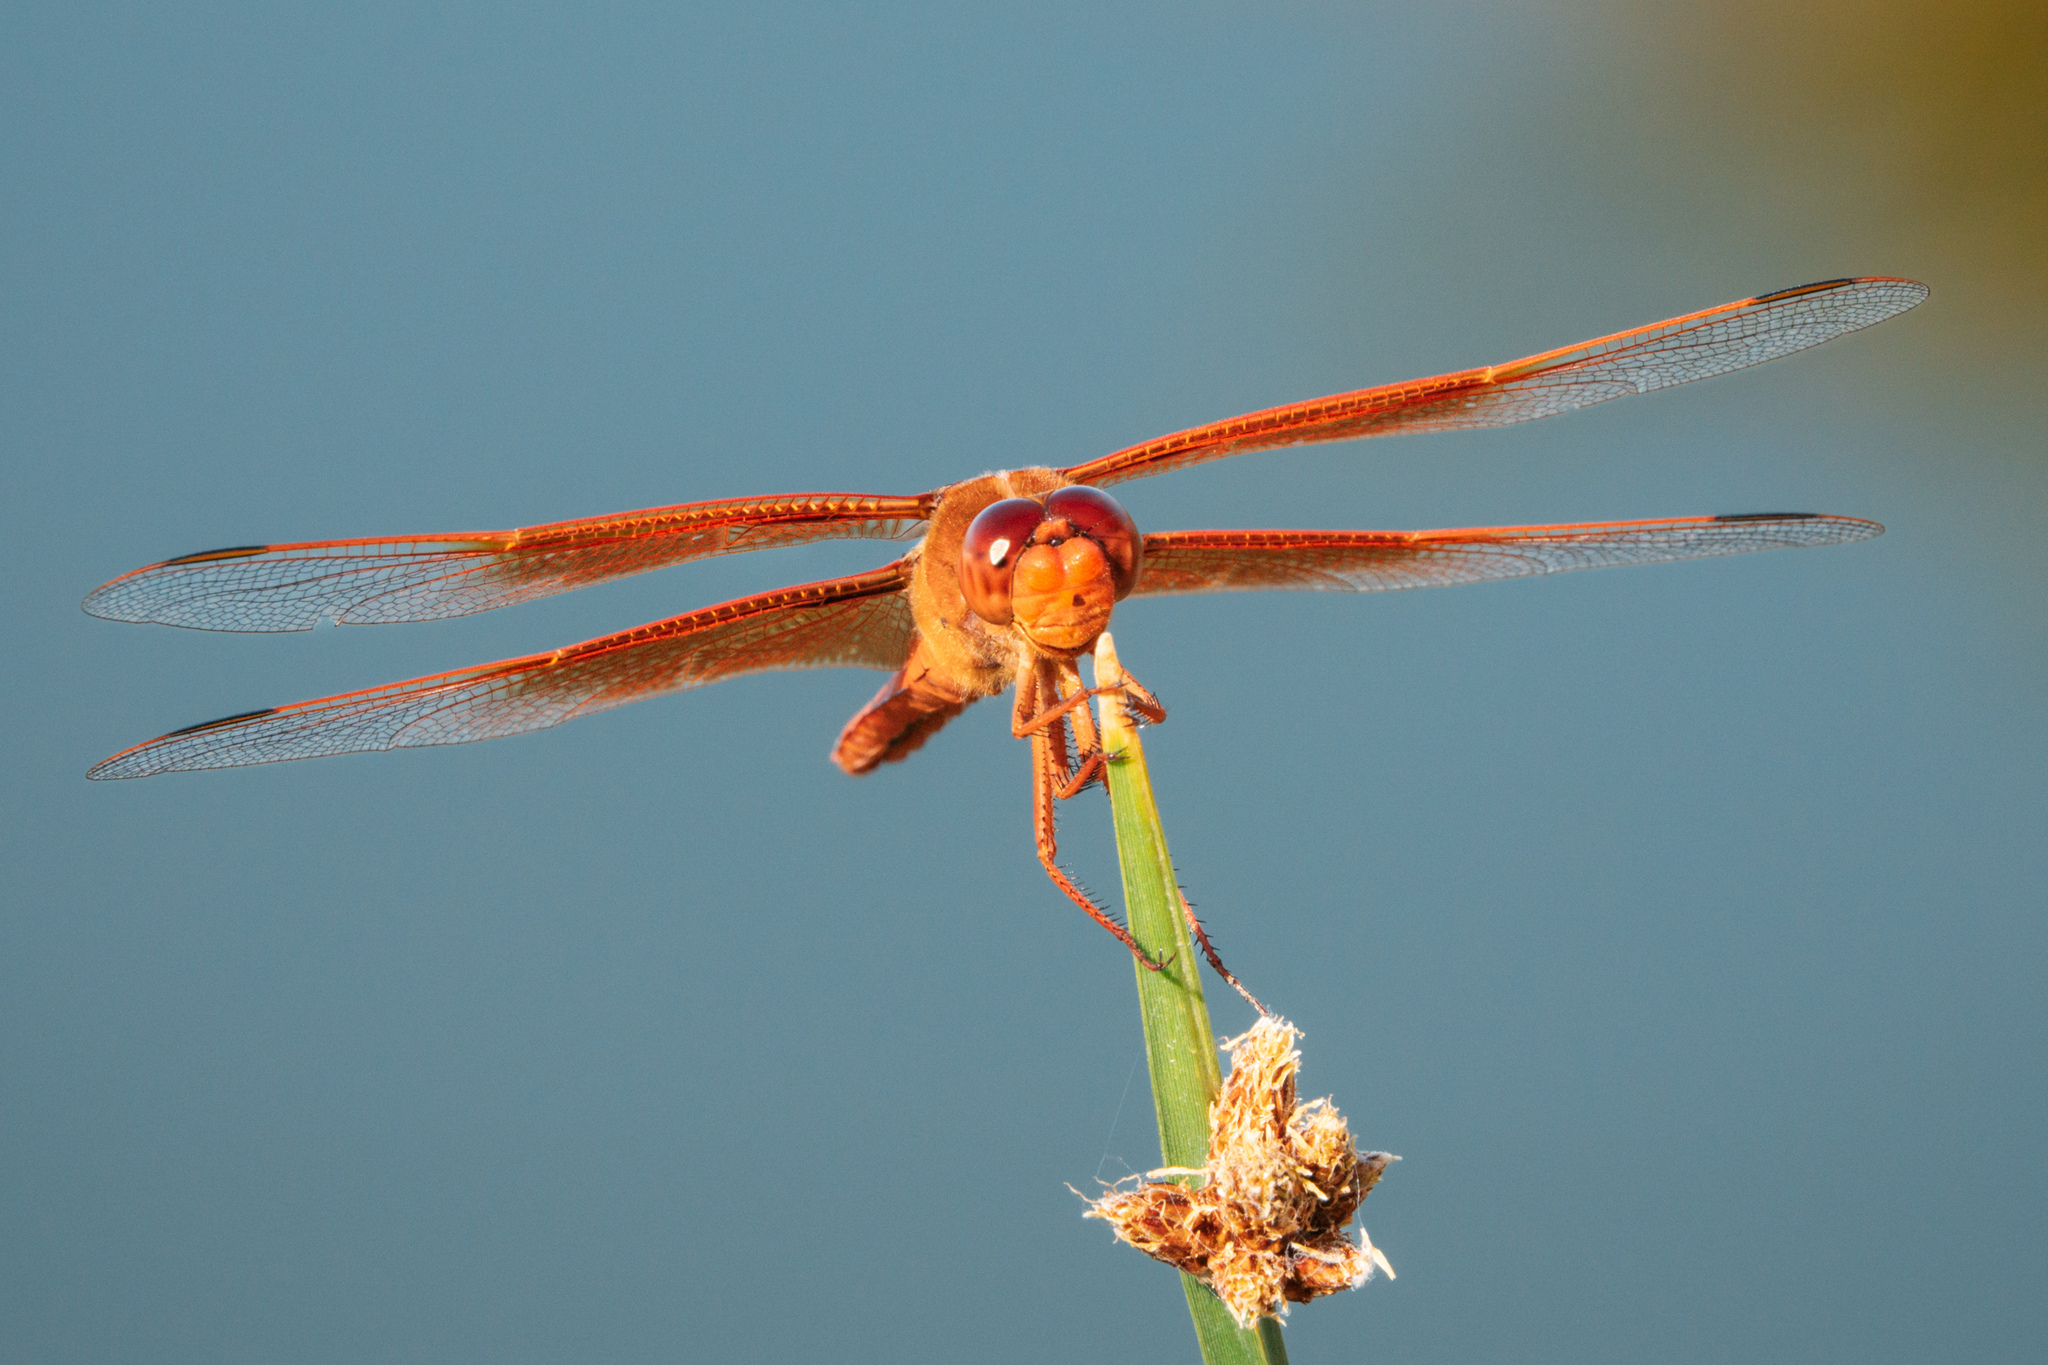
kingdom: Animalia
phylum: Arthropoda
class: Insecta
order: Odonata
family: Libellulidae
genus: Libellula
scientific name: Libellula saturata
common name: Flame skimmer
